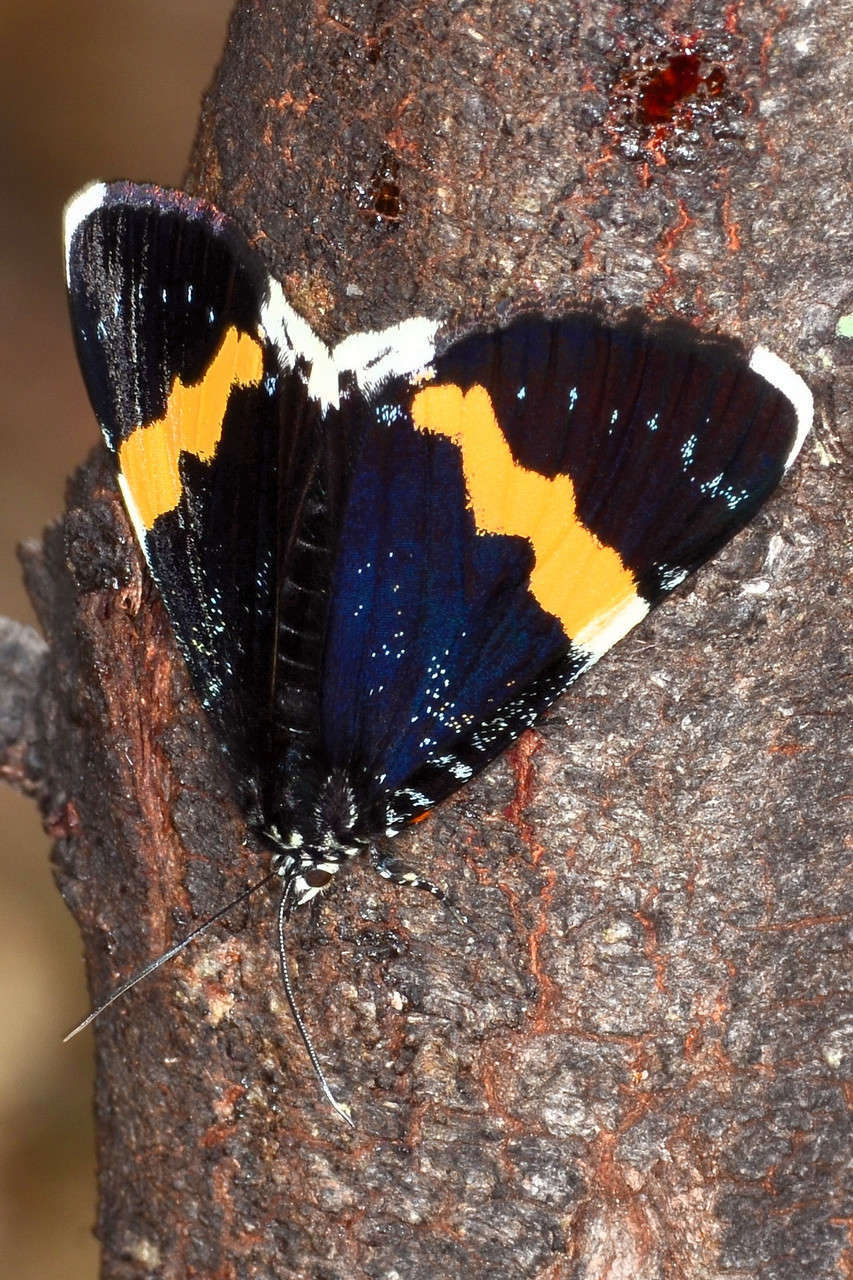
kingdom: Animalia
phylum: Arthropoda
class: Insecta
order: Lepidoptera
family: Noctuidae
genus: Eutrichopidia
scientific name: Eutrichopidia latinus
